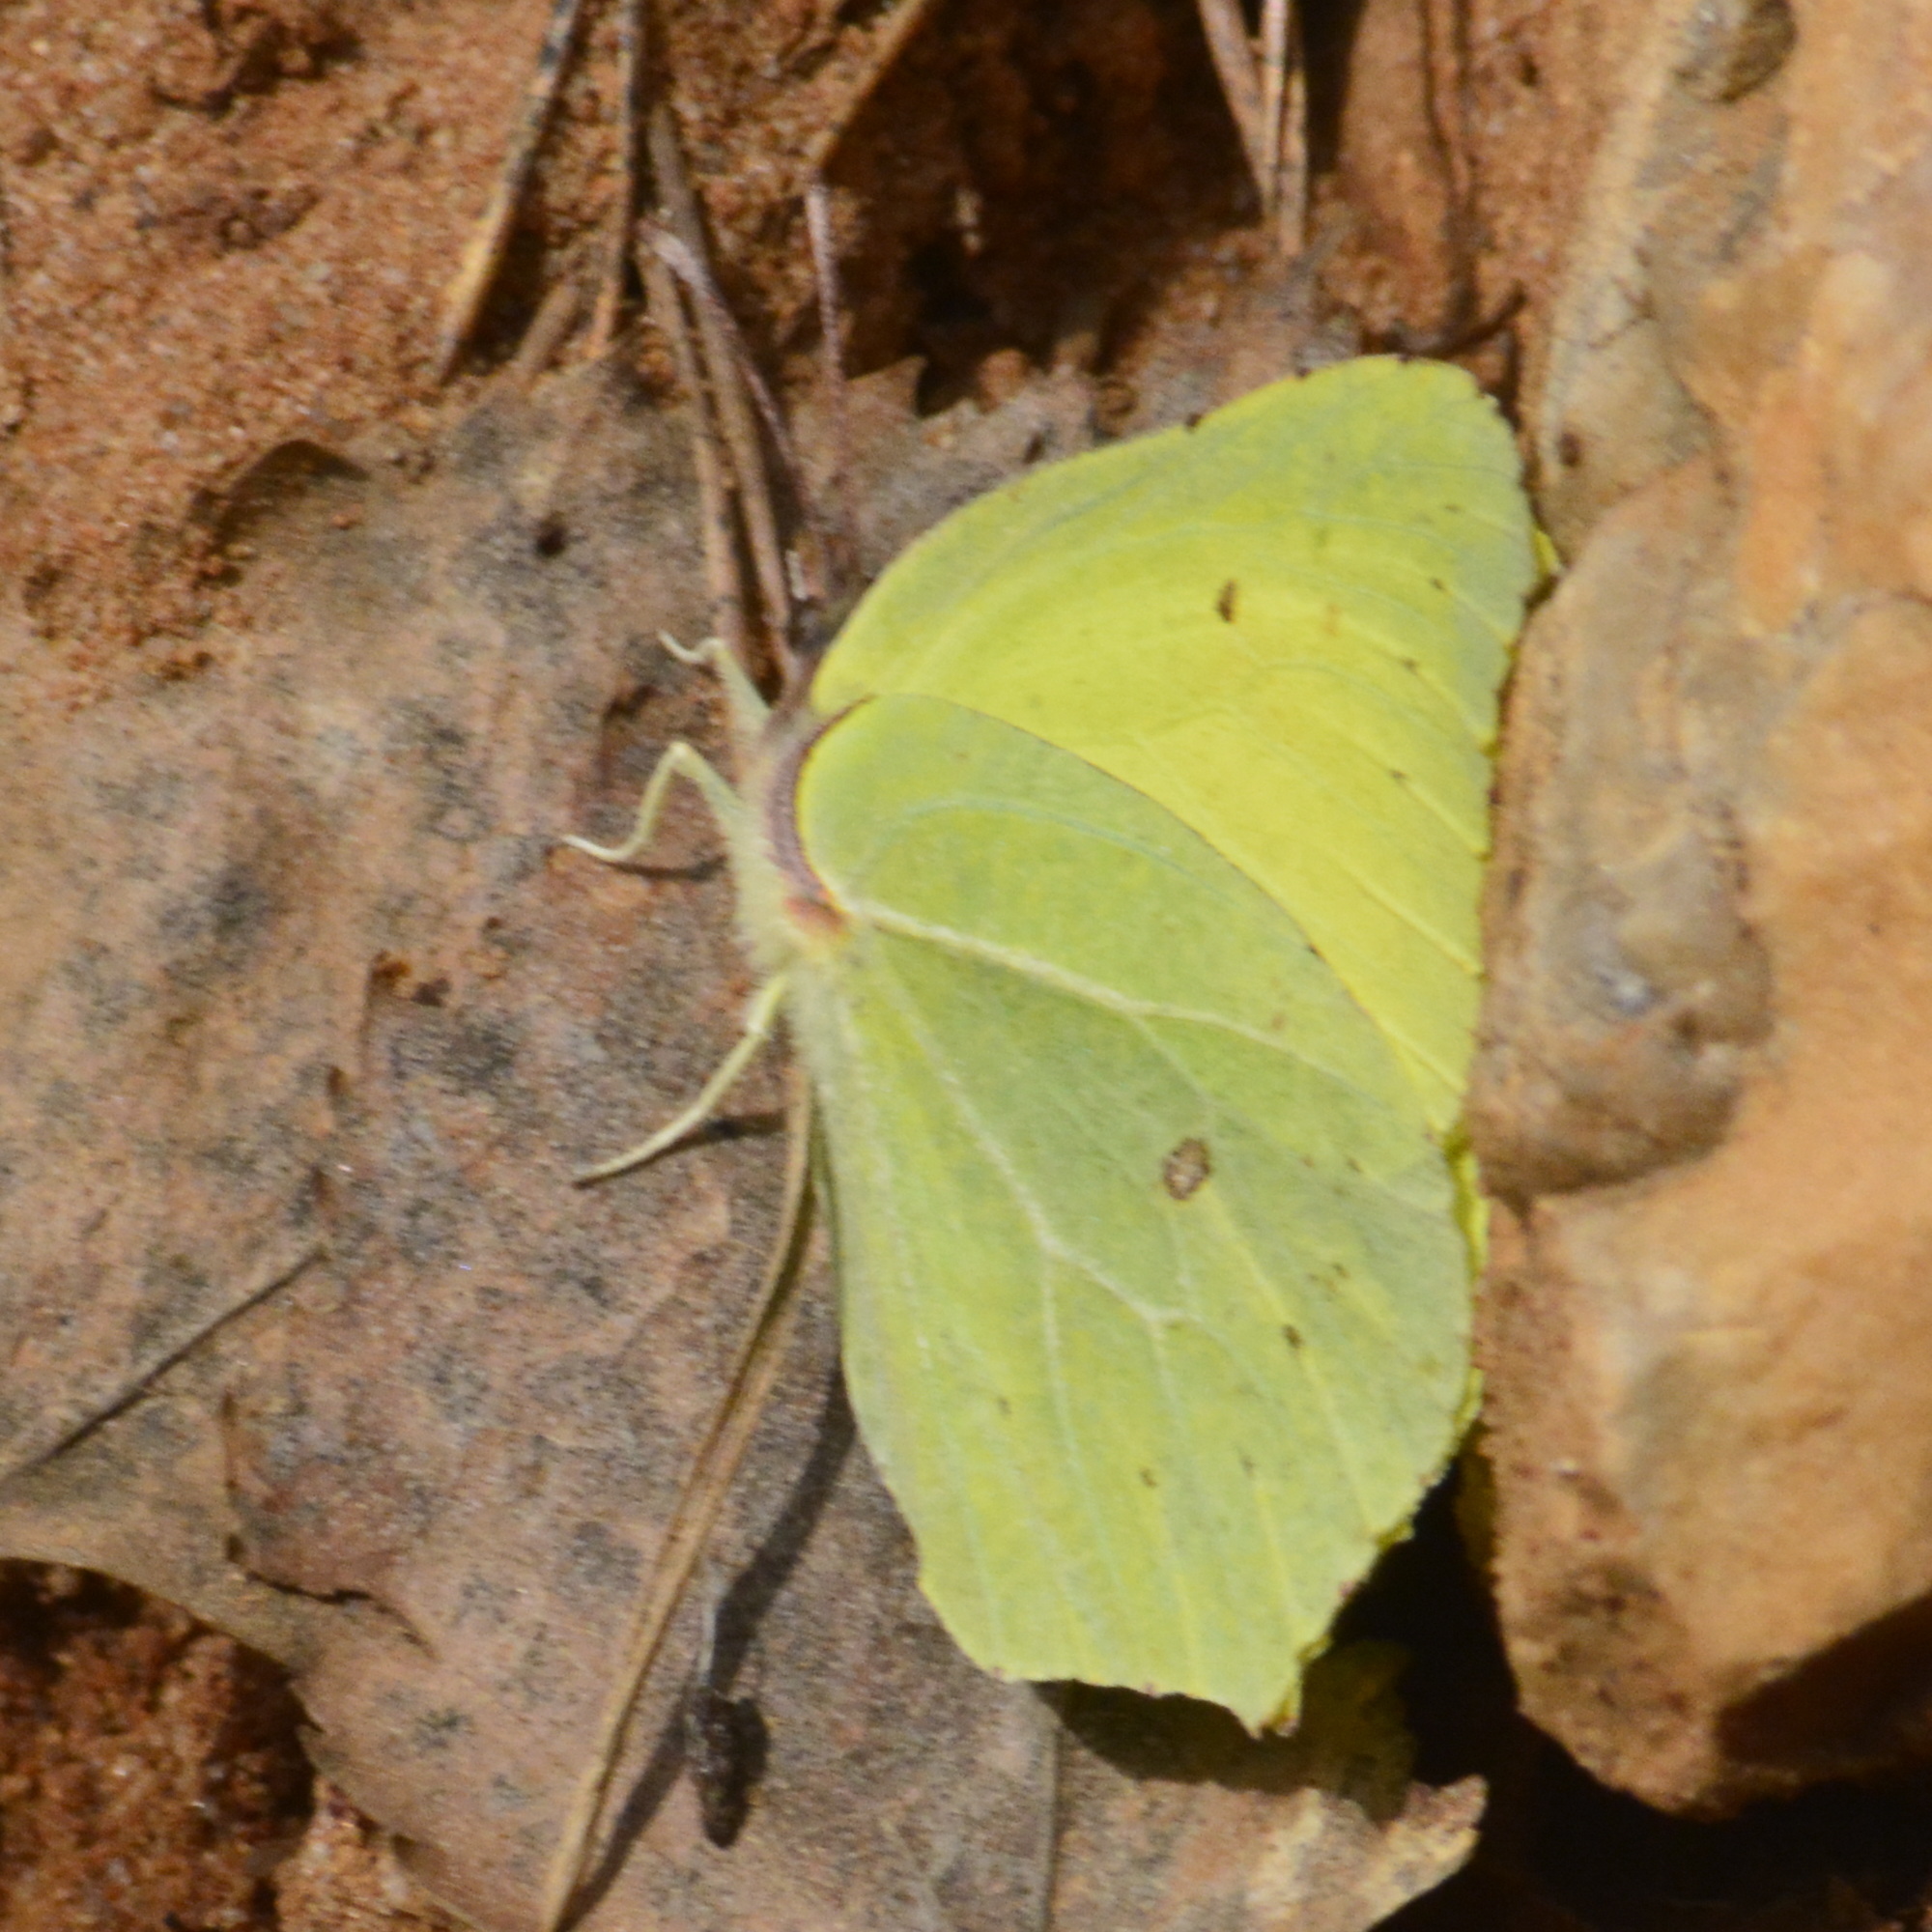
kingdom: Animalia
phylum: Arthropoda
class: Insecta
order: Lepidoptera
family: Pieridae
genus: Gonepteryx
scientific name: Gonepteryx rhamni
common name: Brimstone
